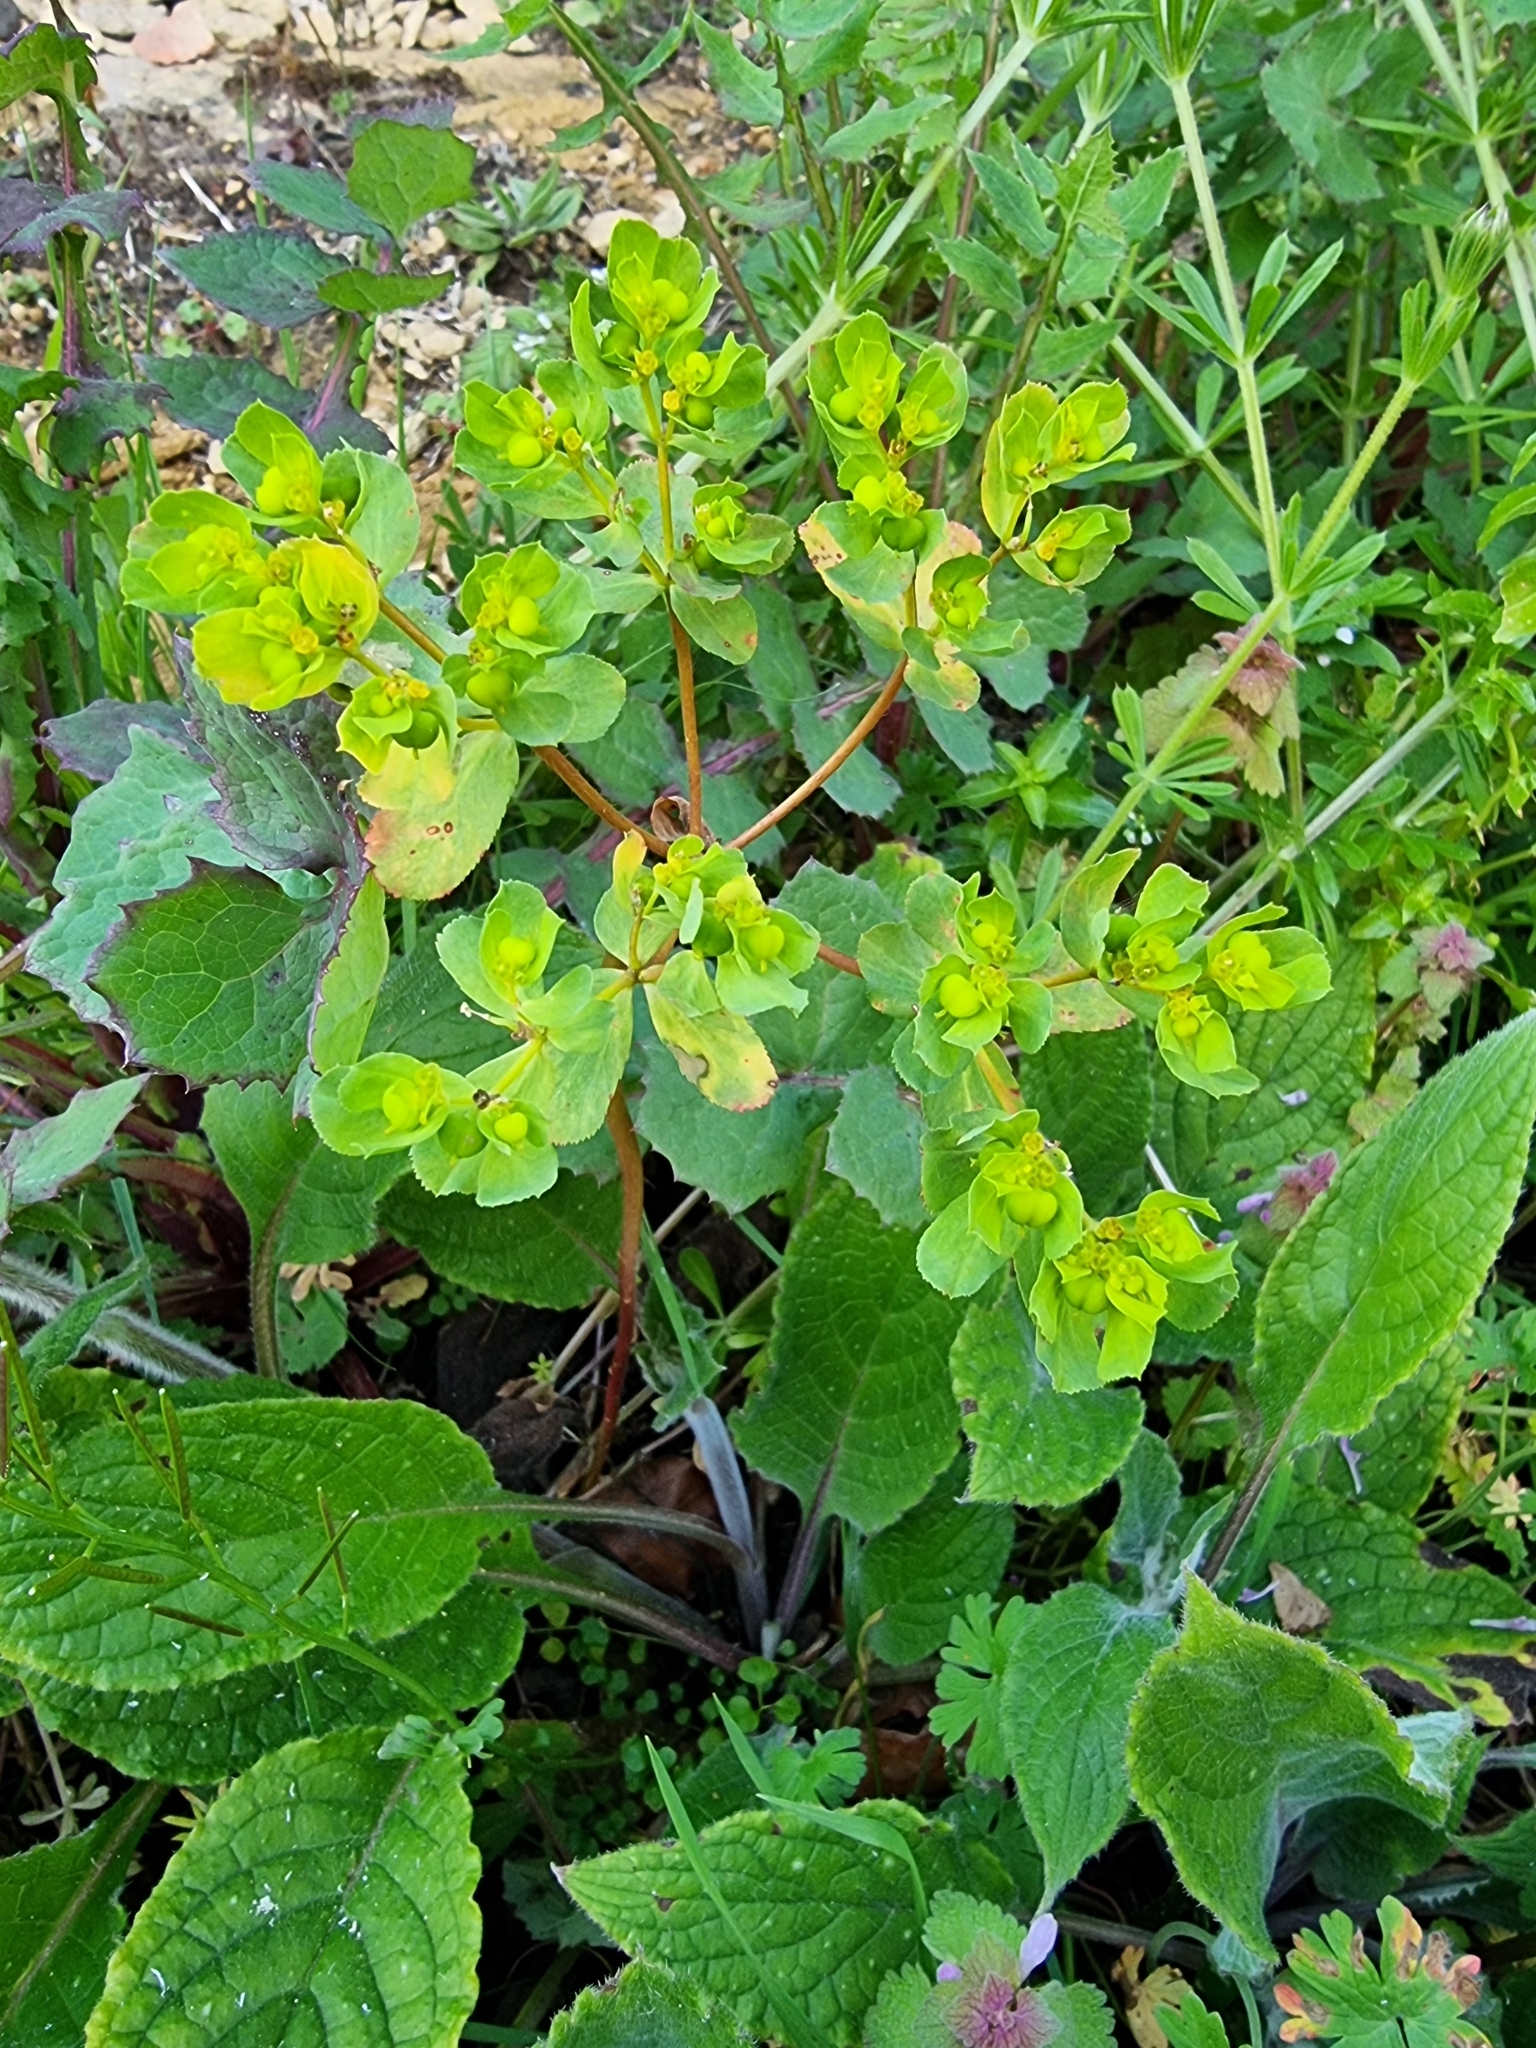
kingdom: Plantae
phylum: Tracheophyta
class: Magnoliopsida
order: Malpighiales
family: Euphorbiaceae
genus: Euphorbia
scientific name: Euphorbia helioscopia
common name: Sun spurge
